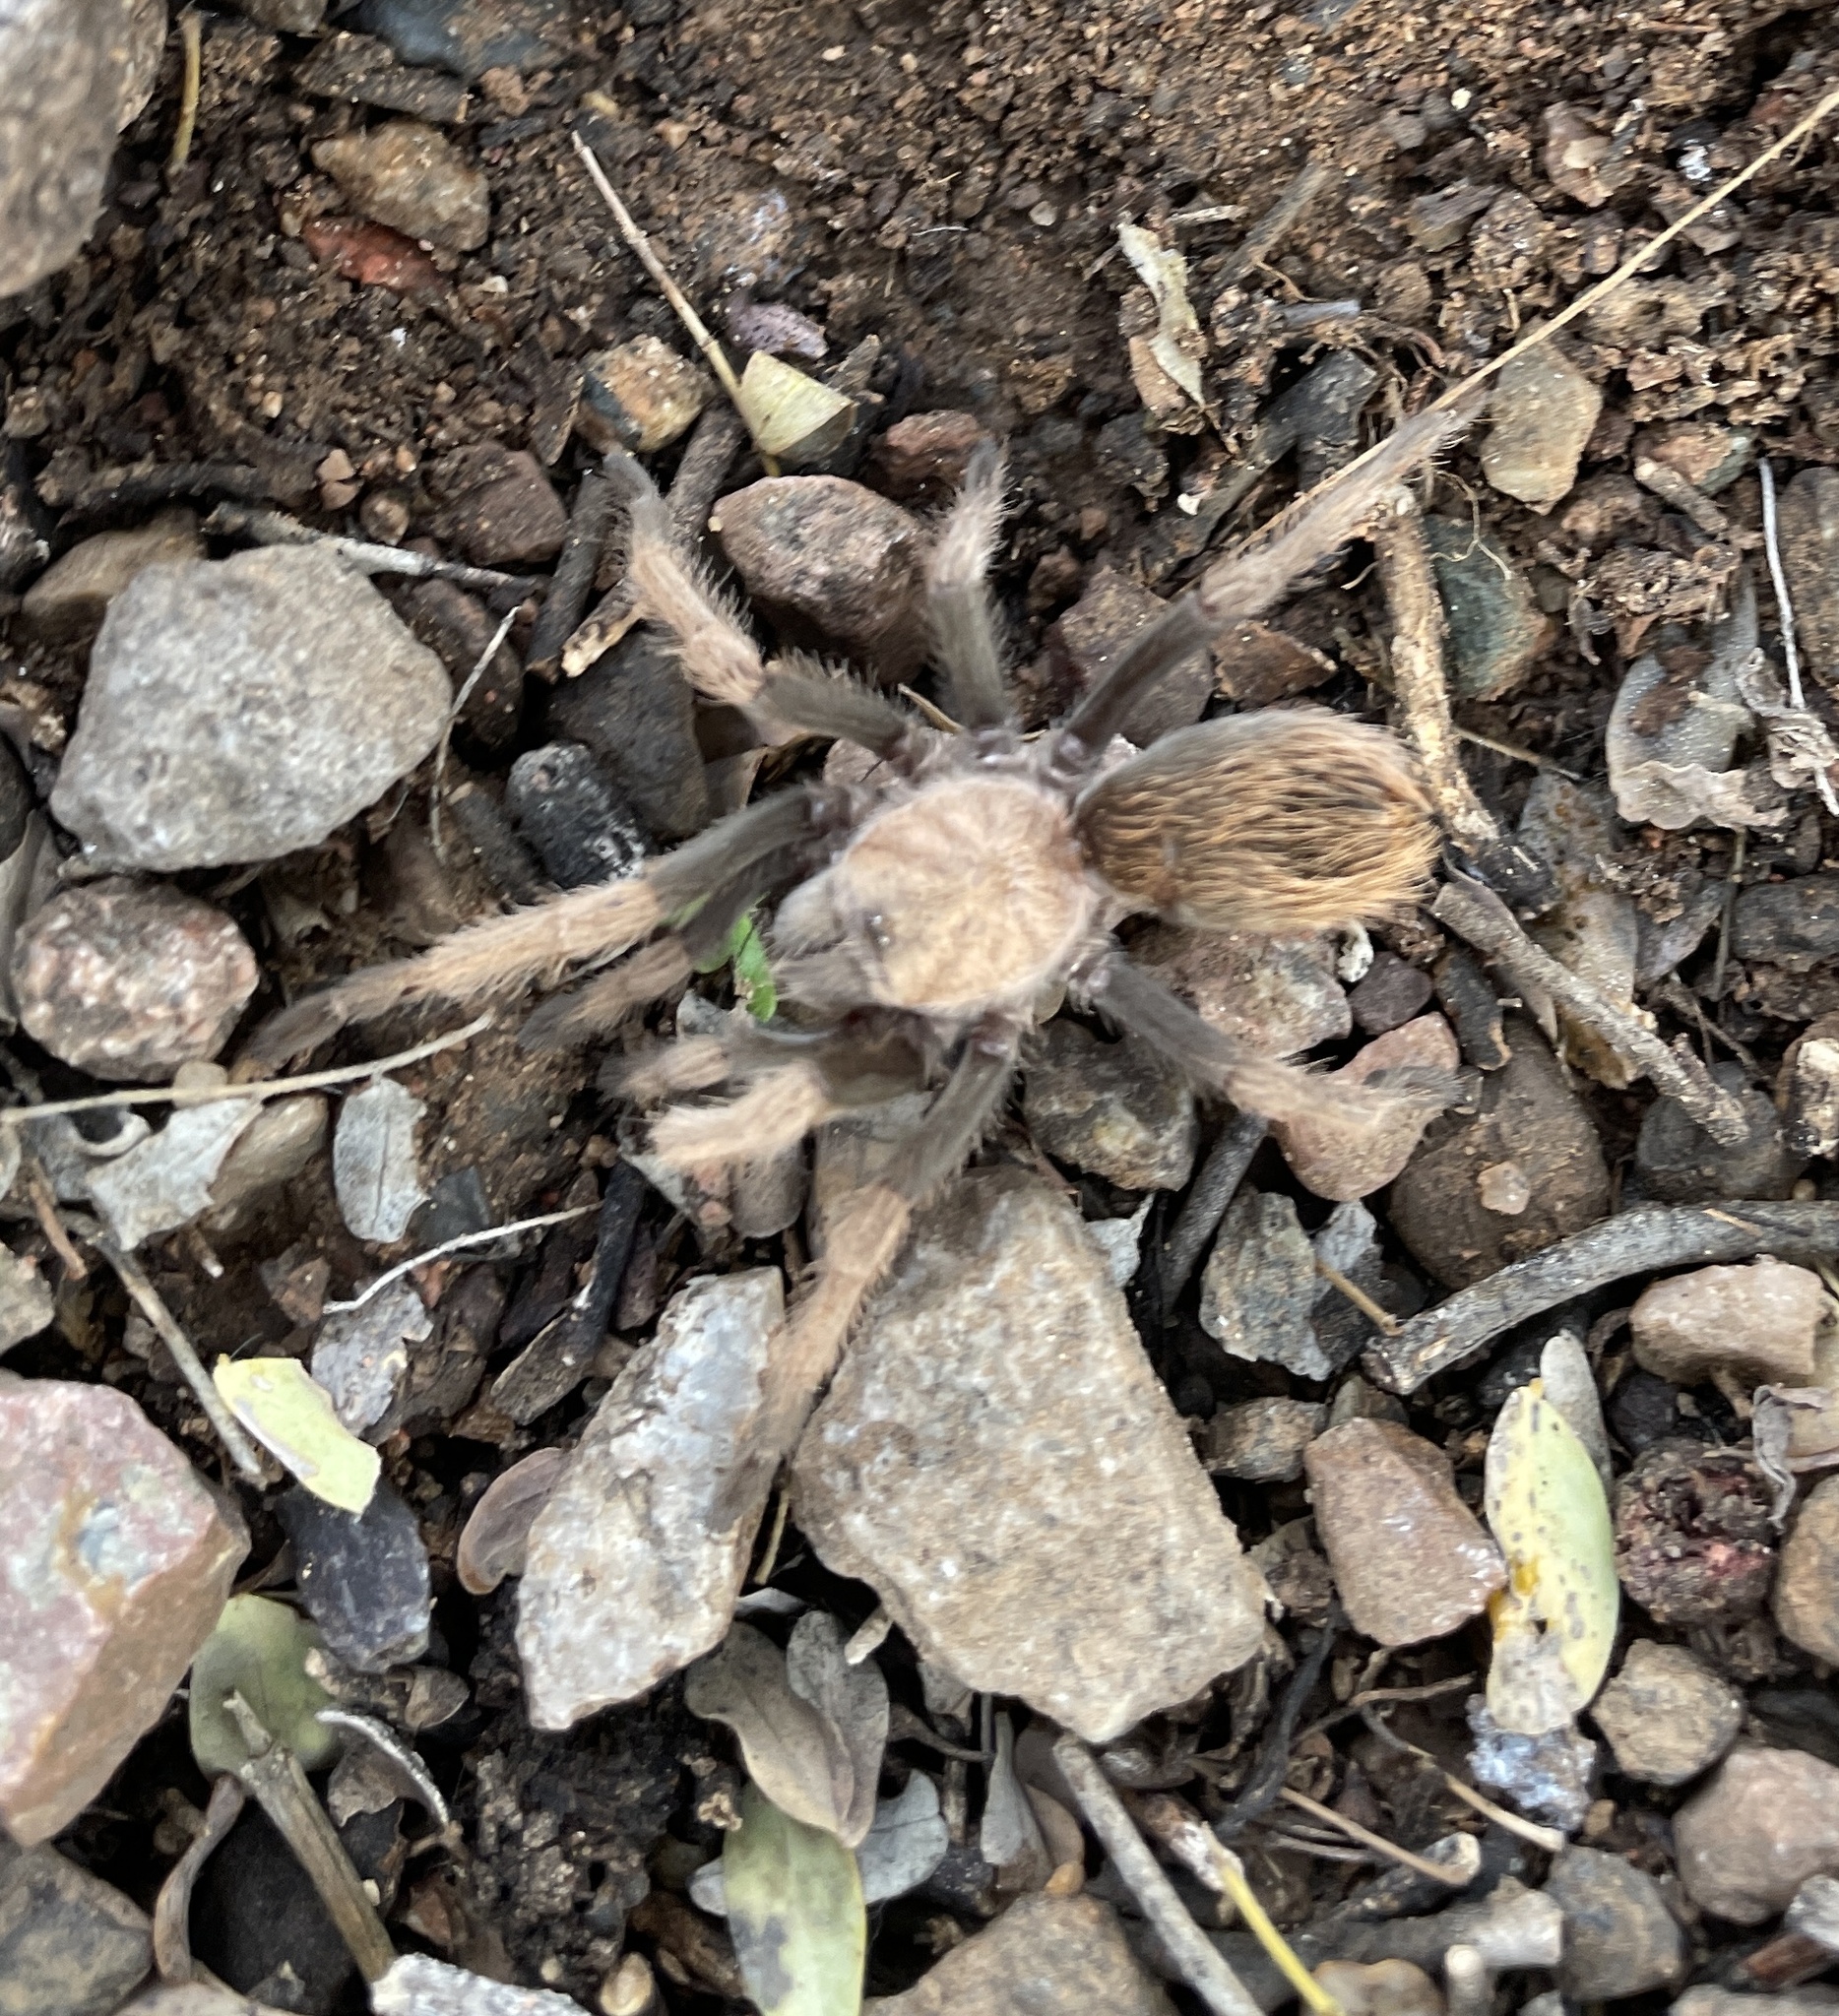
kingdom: Animalia
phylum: Arthropoda
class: Arachnida
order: Araneae
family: Theraphosidae
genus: Aphonopelma
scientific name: Aphonopelma chalcodes
